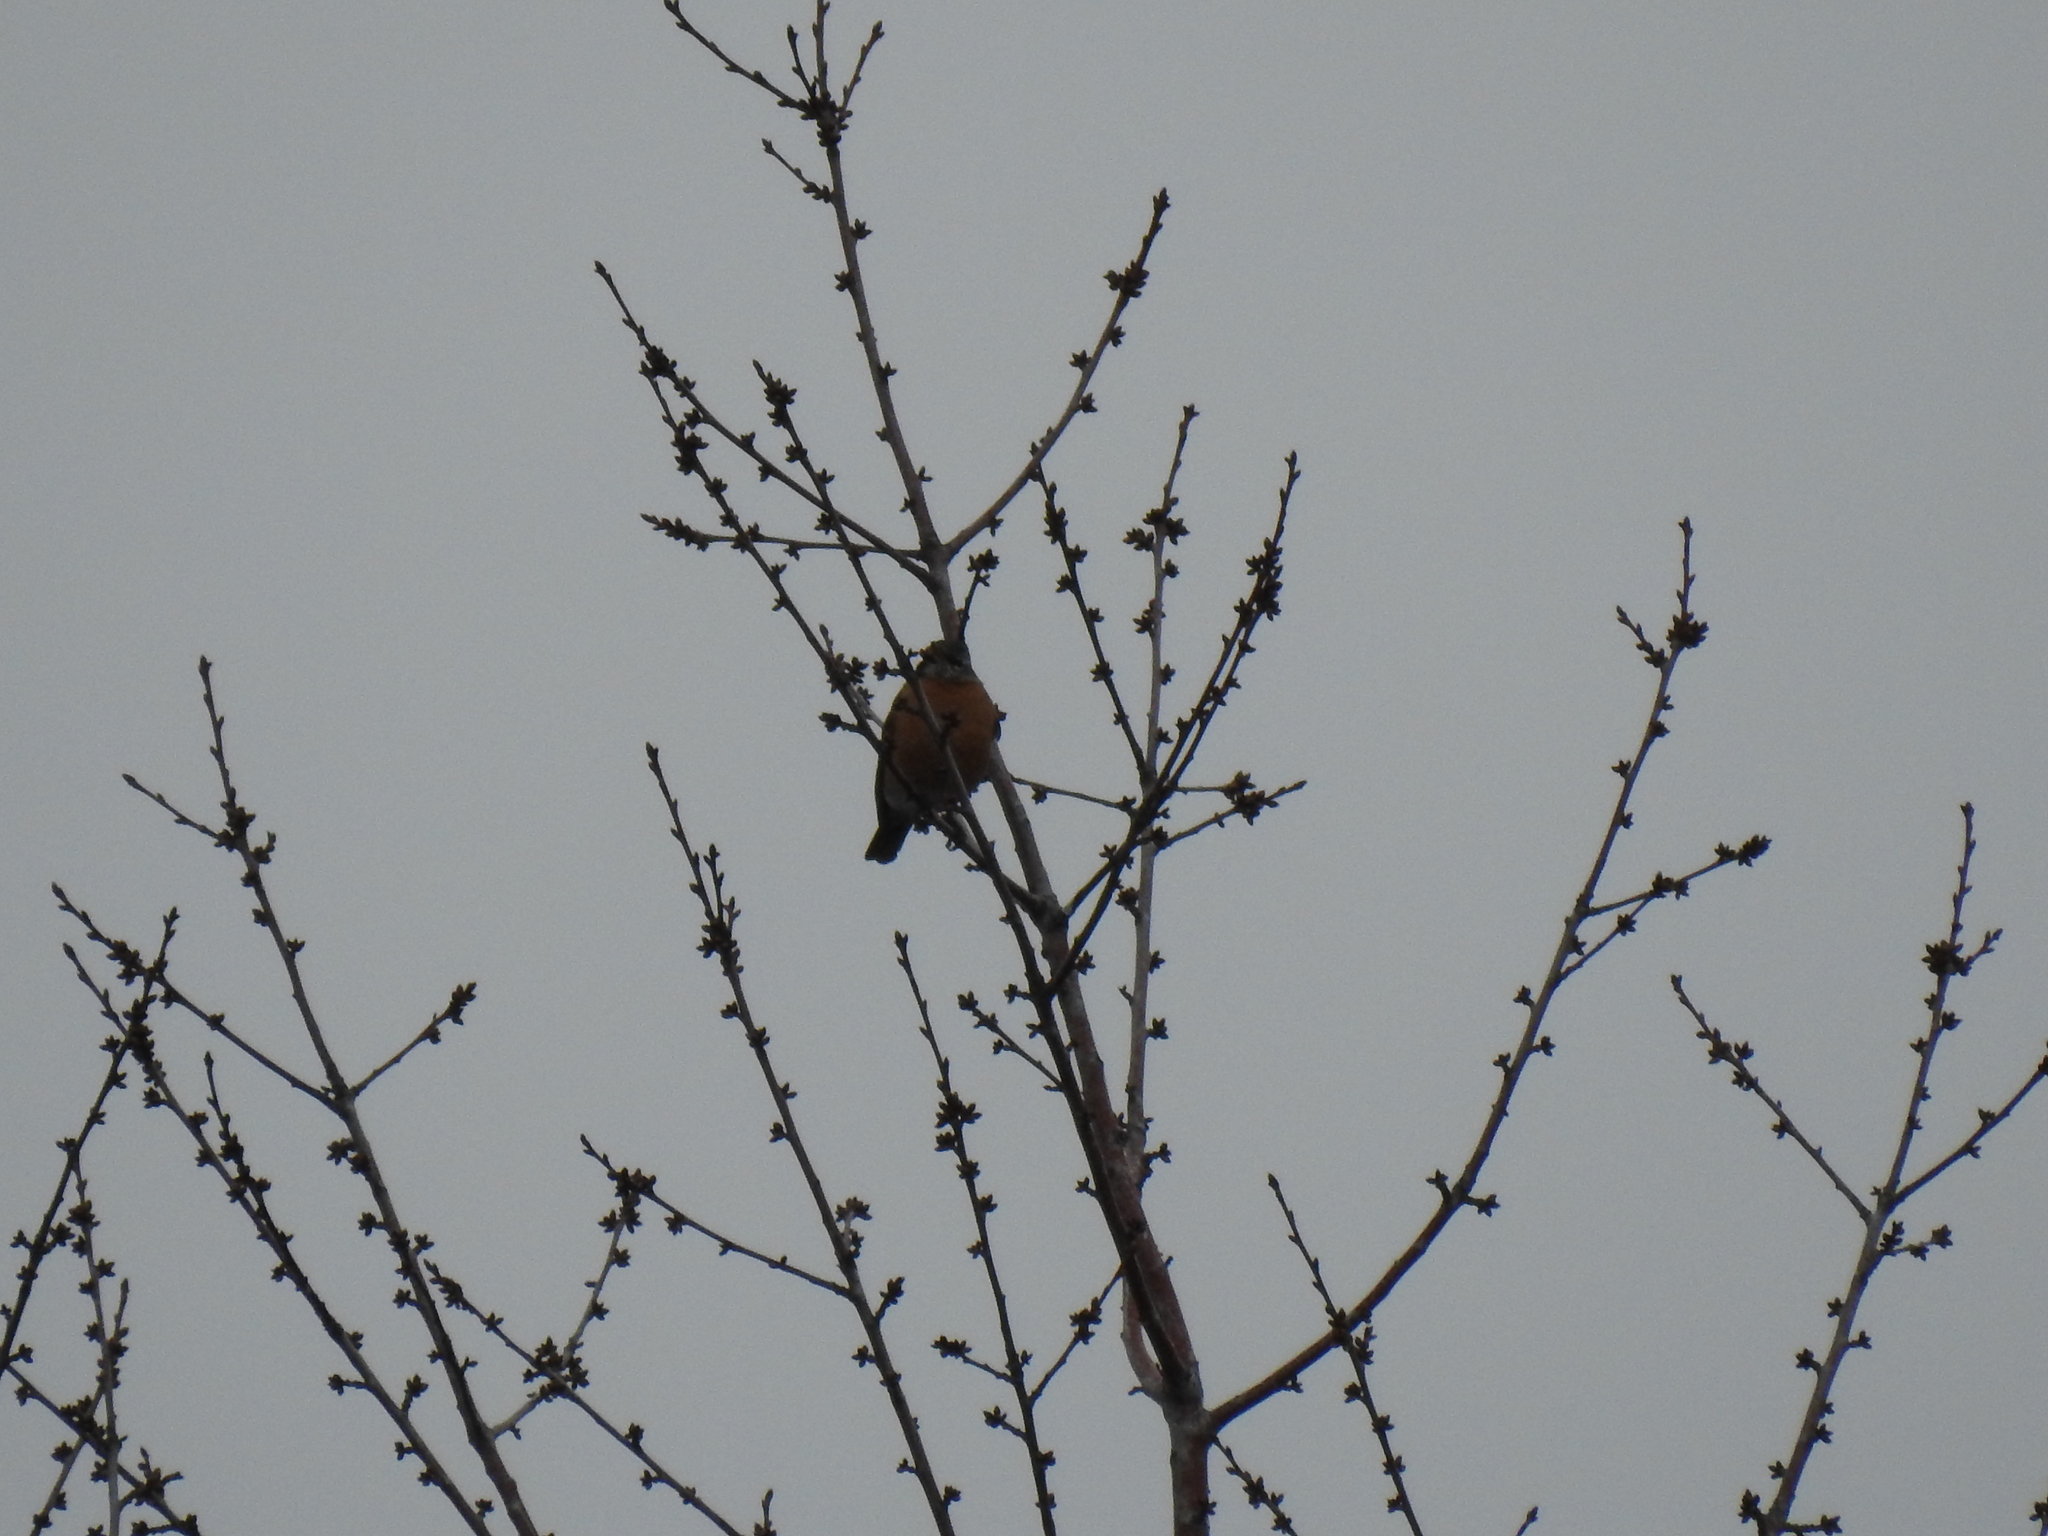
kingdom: Animalia
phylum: Chordata
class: Aves
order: Passeriformes
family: Turdidae
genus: Turdus
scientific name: Turdus migratorius
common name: American robin
